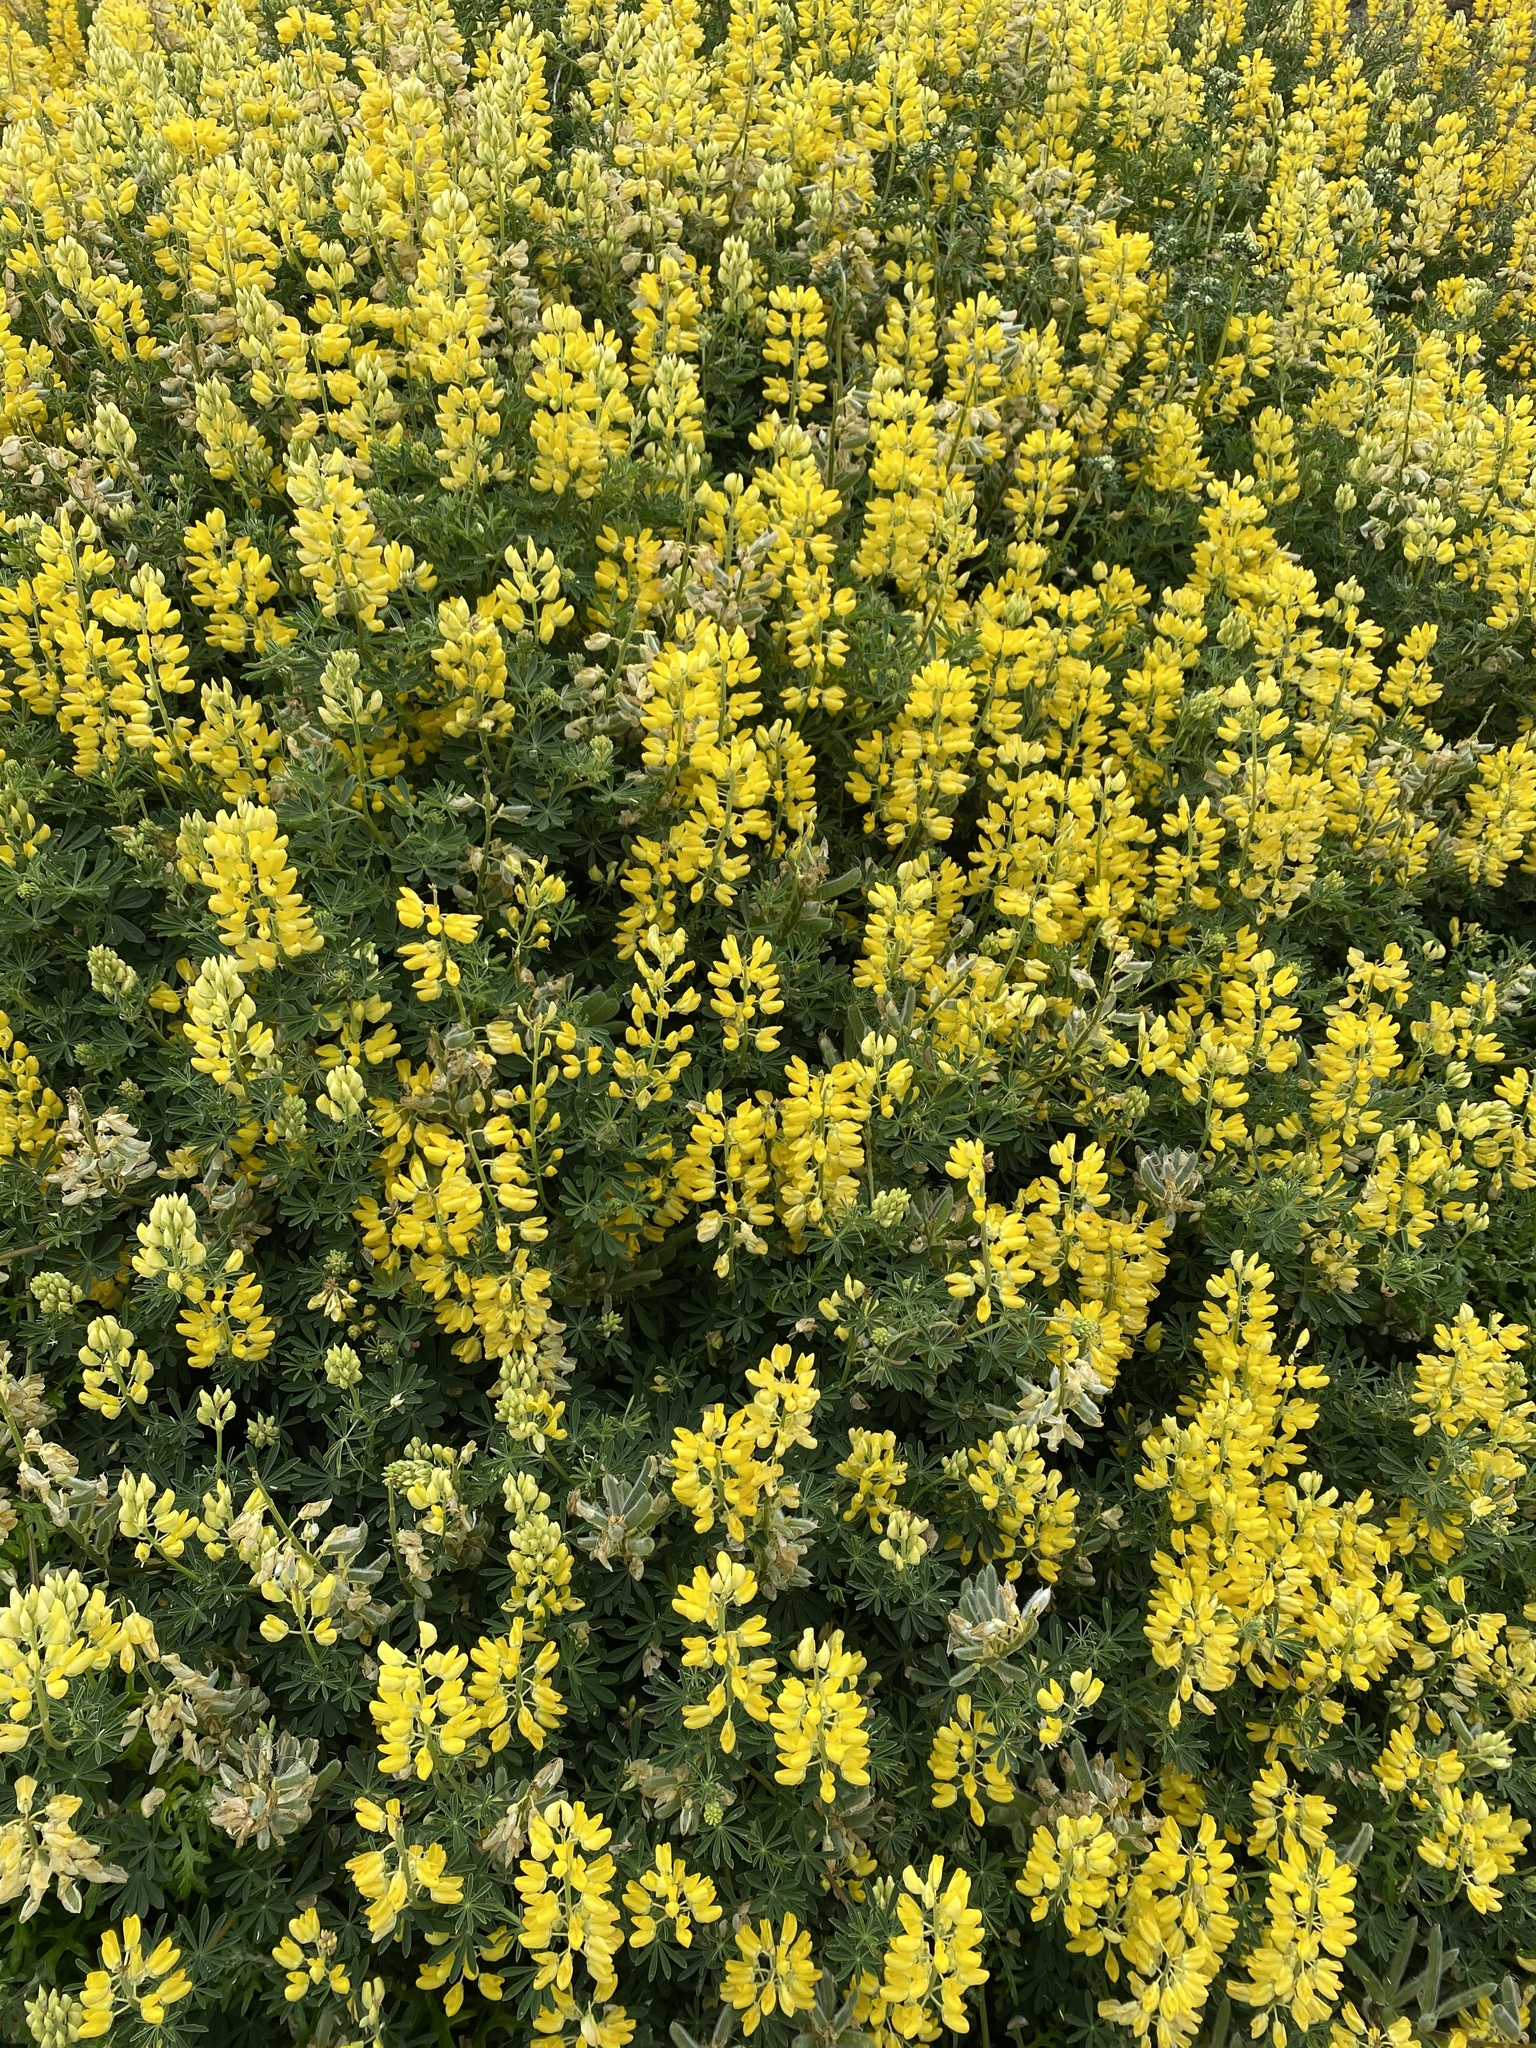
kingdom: Plantae
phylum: Tracheophyta
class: Magnoliopsida
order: Fabales
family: Fabaceae
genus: Lupinus
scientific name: Lupinus arboreus
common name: Yellow bush lupine
